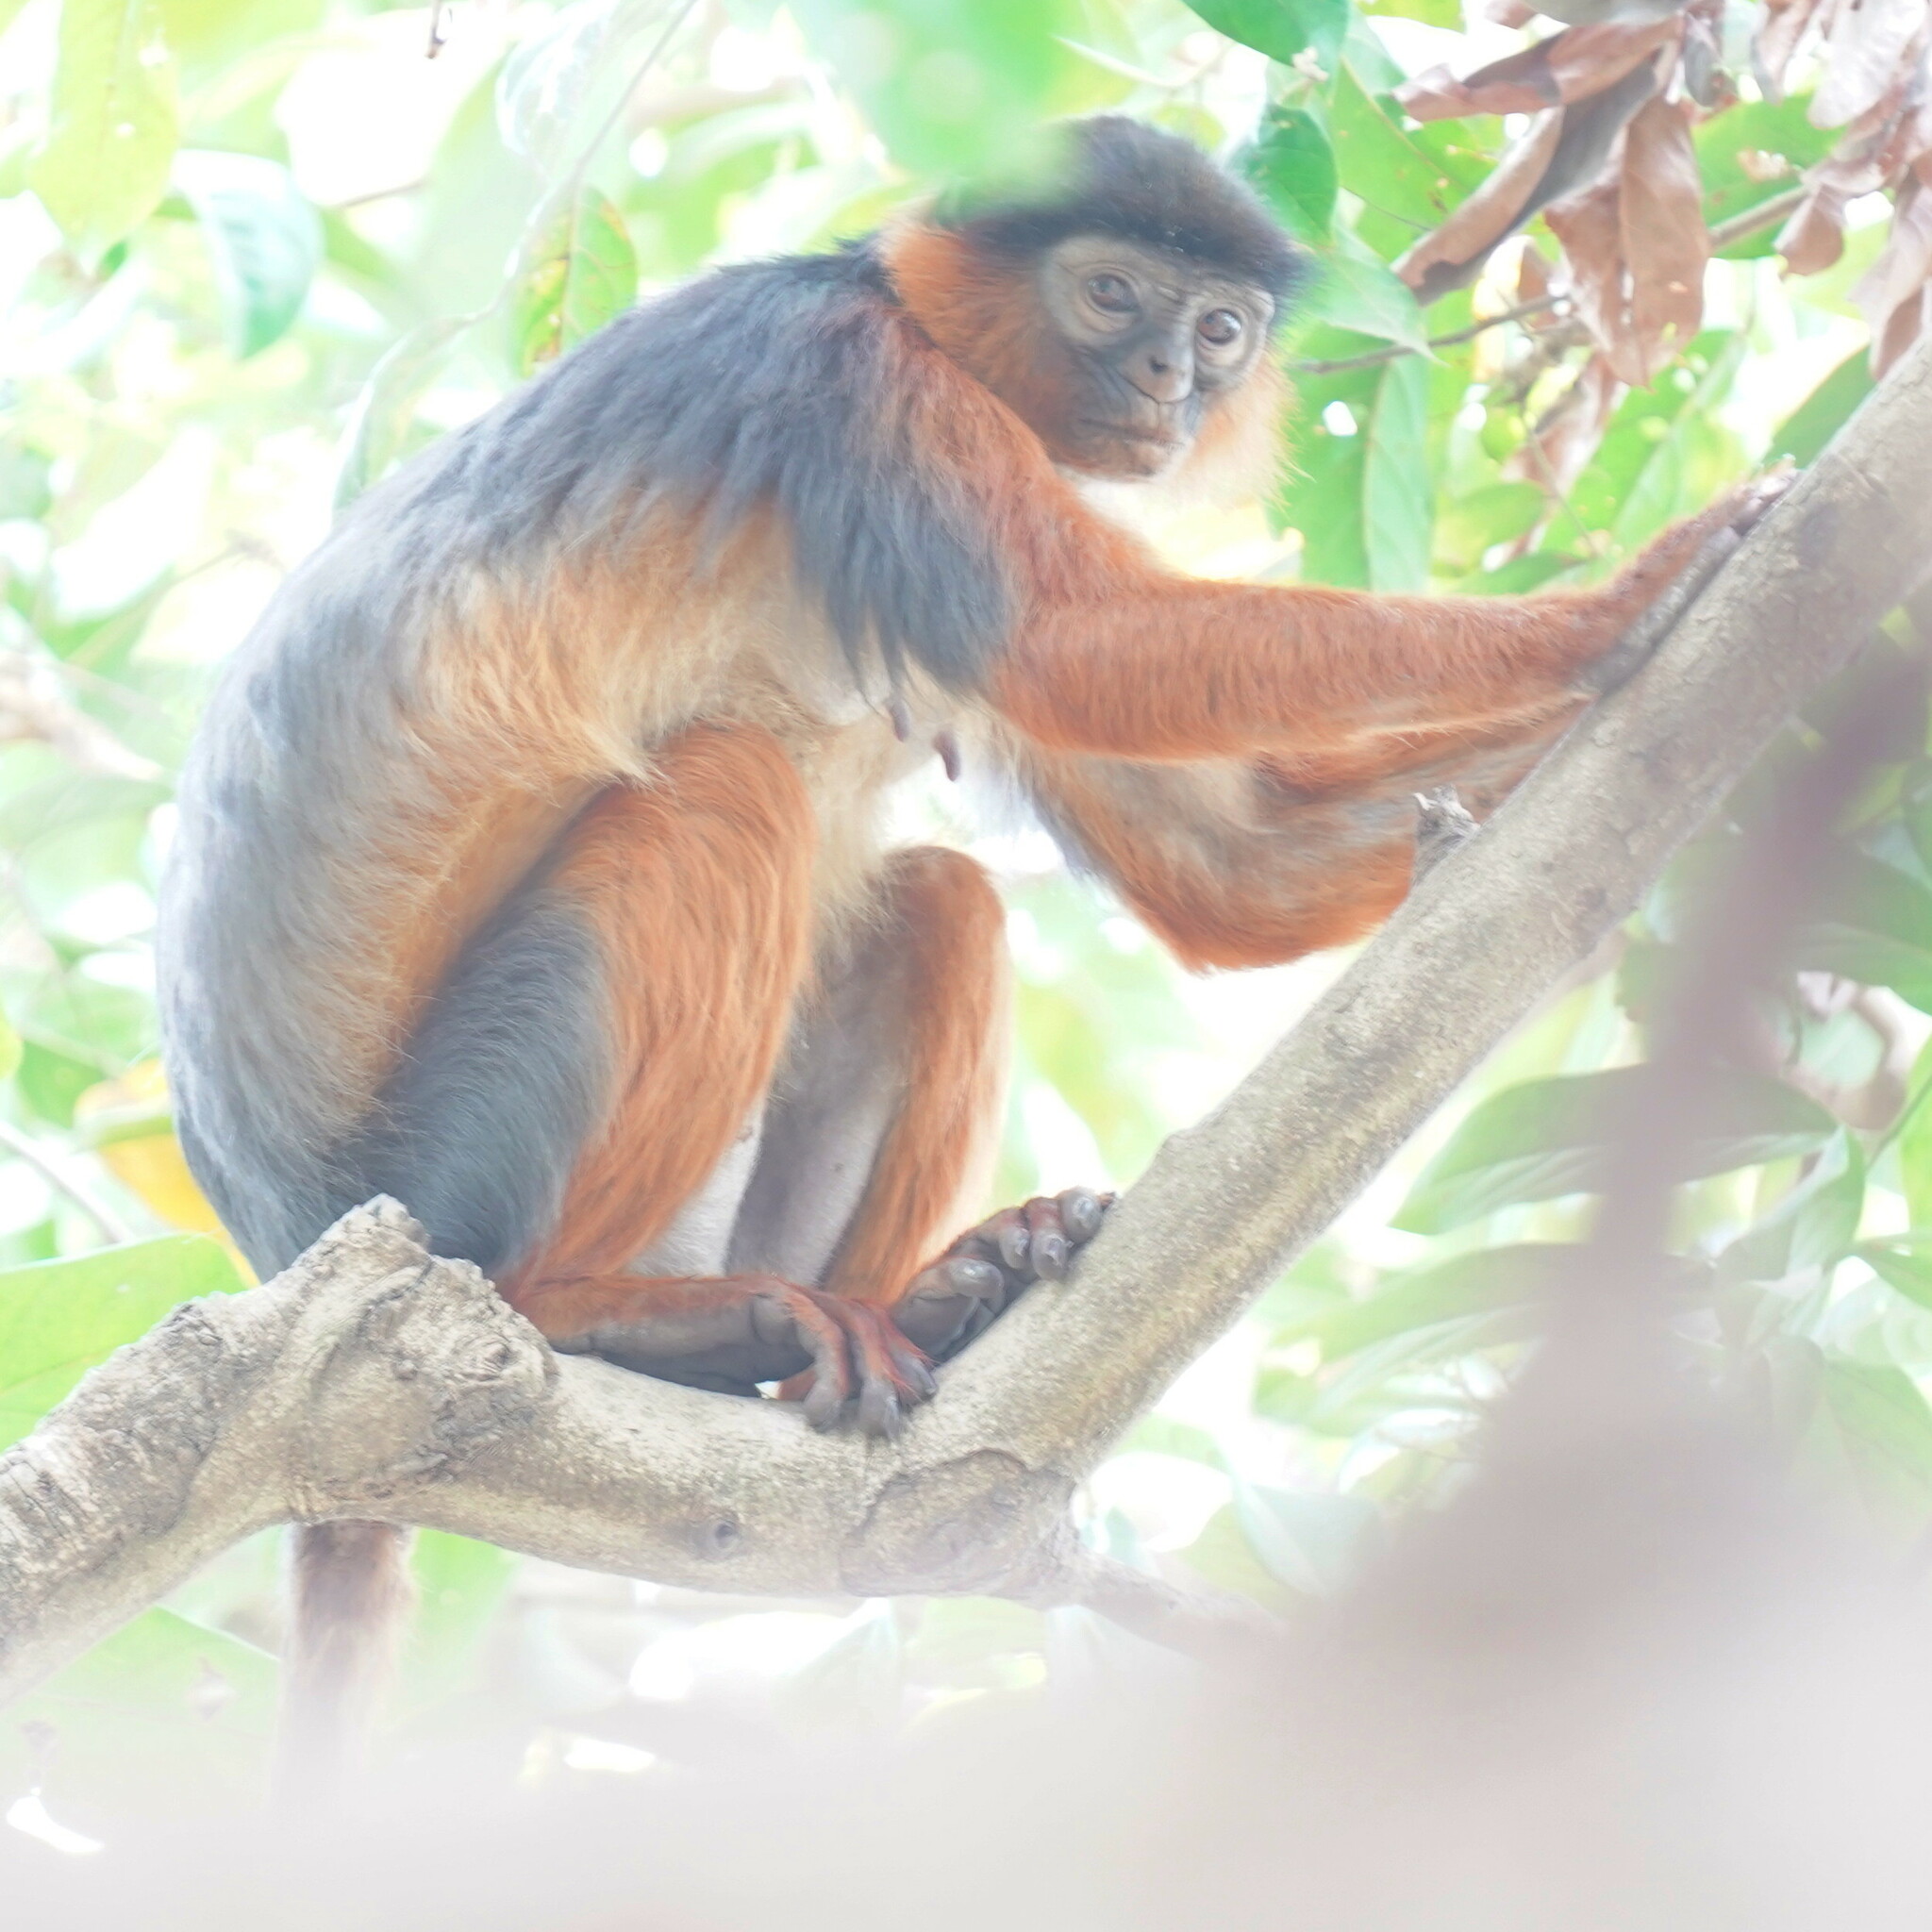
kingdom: Animalia
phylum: Chordata
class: Mammalia
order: Primates
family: Cercopithecidae
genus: Piliocolobus
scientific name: Piliocolobus badius
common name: Western red colobus
